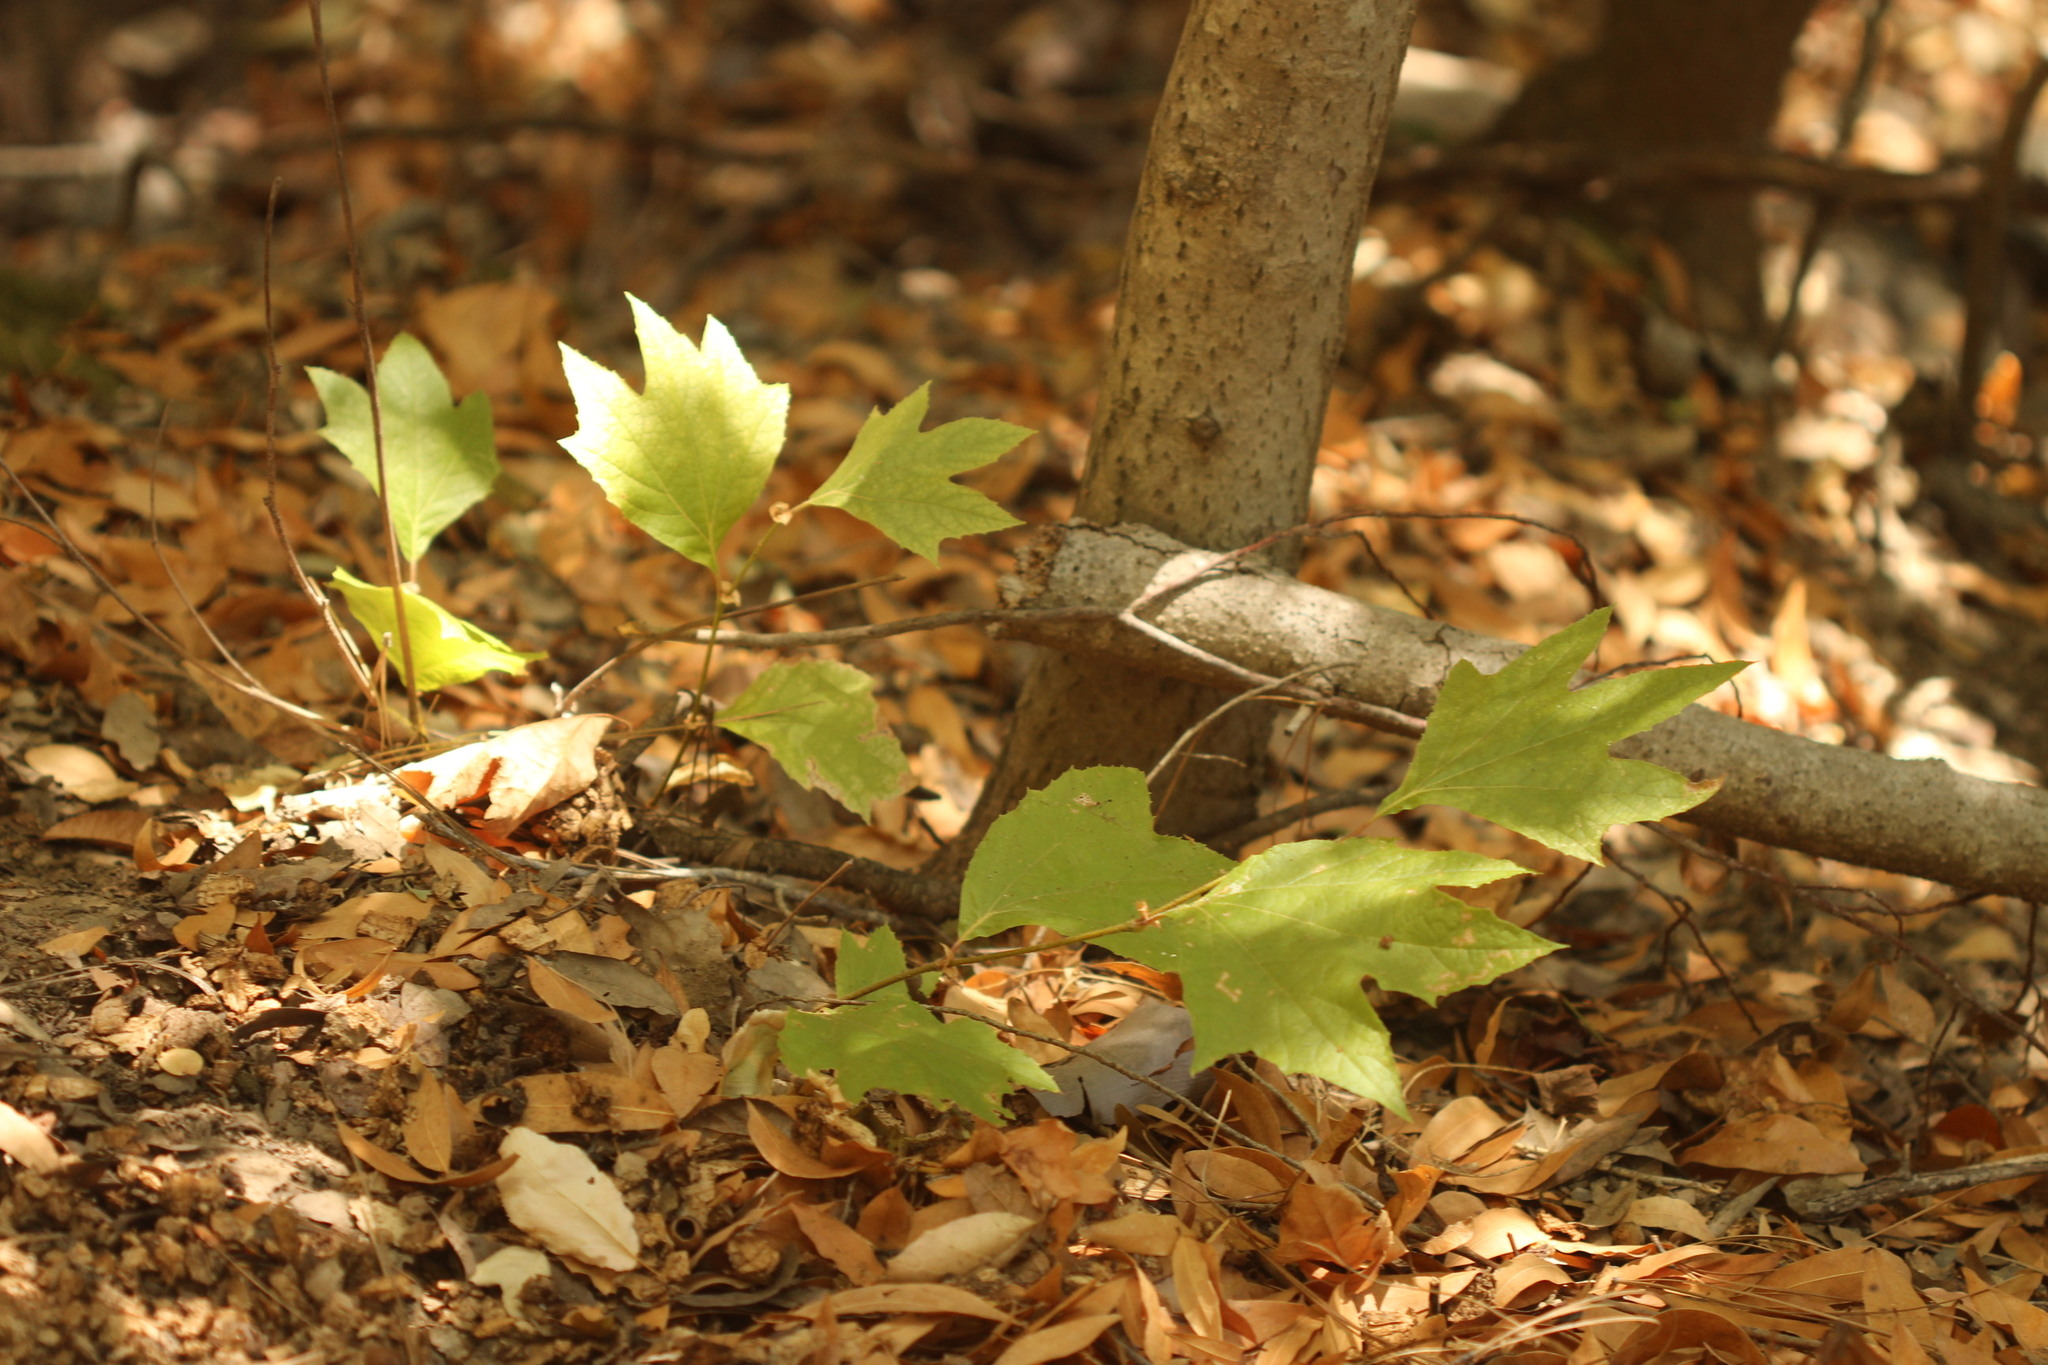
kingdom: Plantae
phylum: Tracheophyta
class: Magnoliopsida
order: Proteales
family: Platanaceae
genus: Platanus
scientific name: Platanus racemosa
